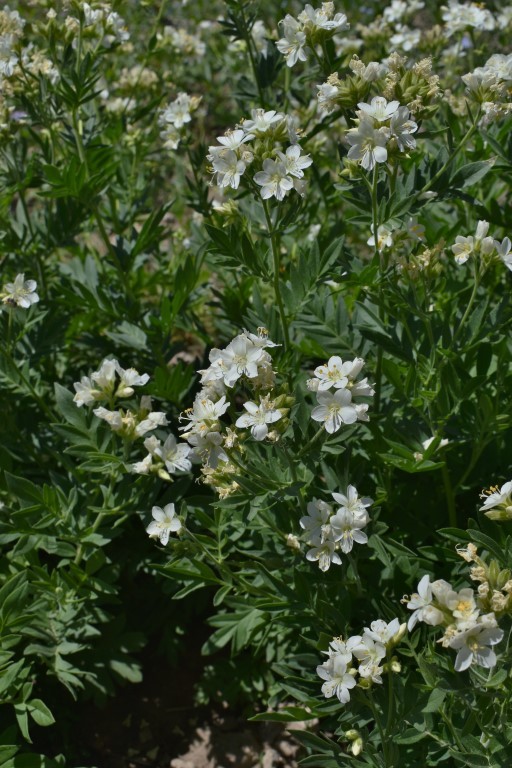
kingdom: Plantae
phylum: Tracheophyta
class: Magnoliopsida
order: Ericales
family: Polemoniaceae
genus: Polemonium
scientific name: Polemonium foliosissimum
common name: Leafy jacob's-ladder
